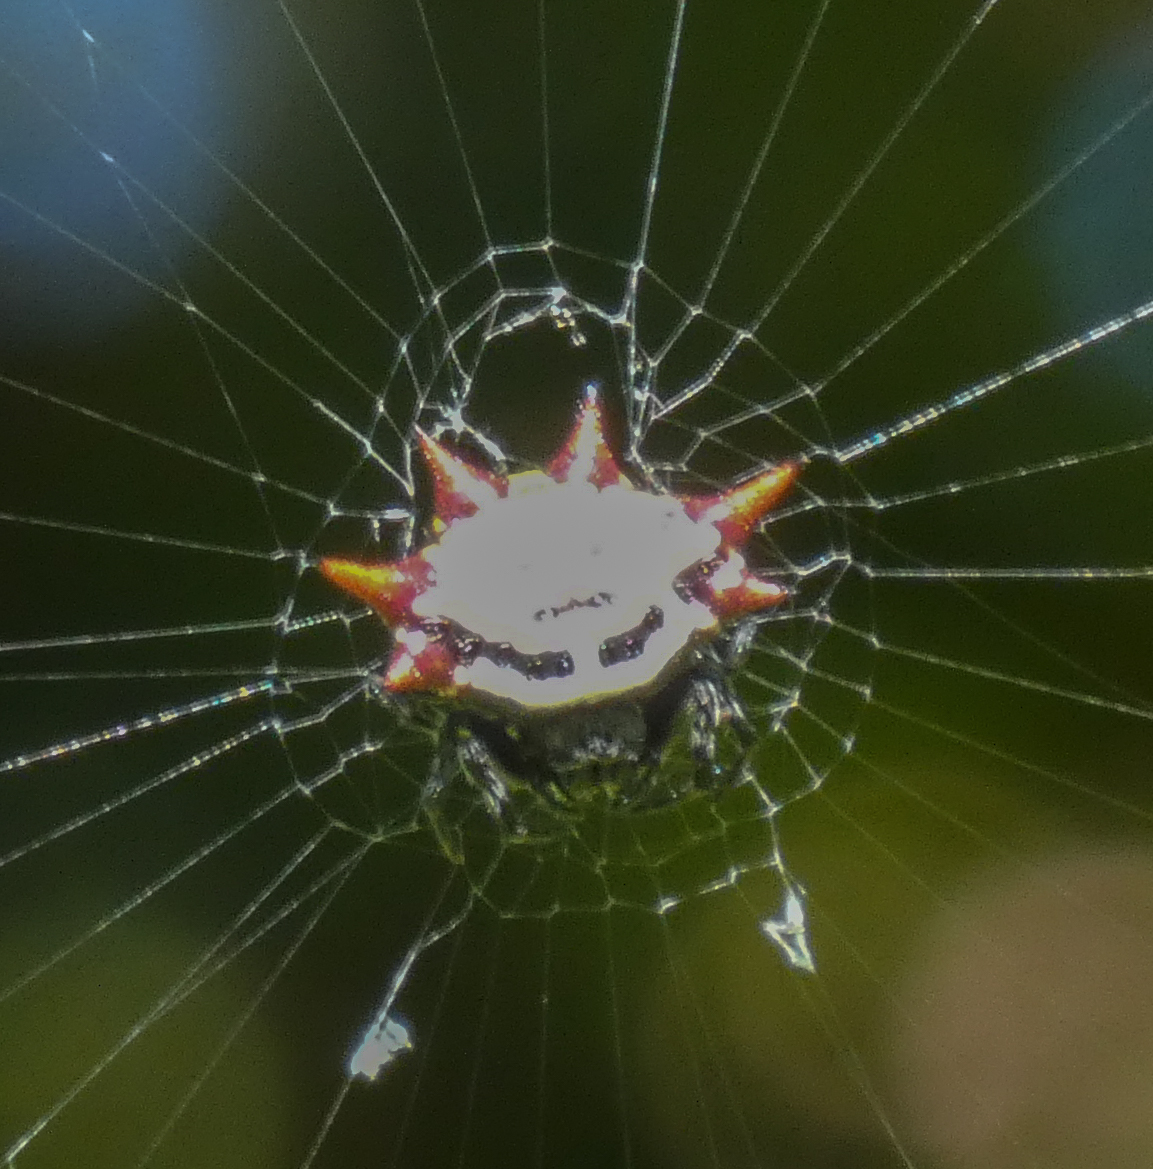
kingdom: Animalia
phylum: Arthropoda
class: Arachnida
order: Araneae
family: Araneidae
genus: Gasteracantha
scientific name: Gasteracantha cancriformis
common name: Orb weavers
